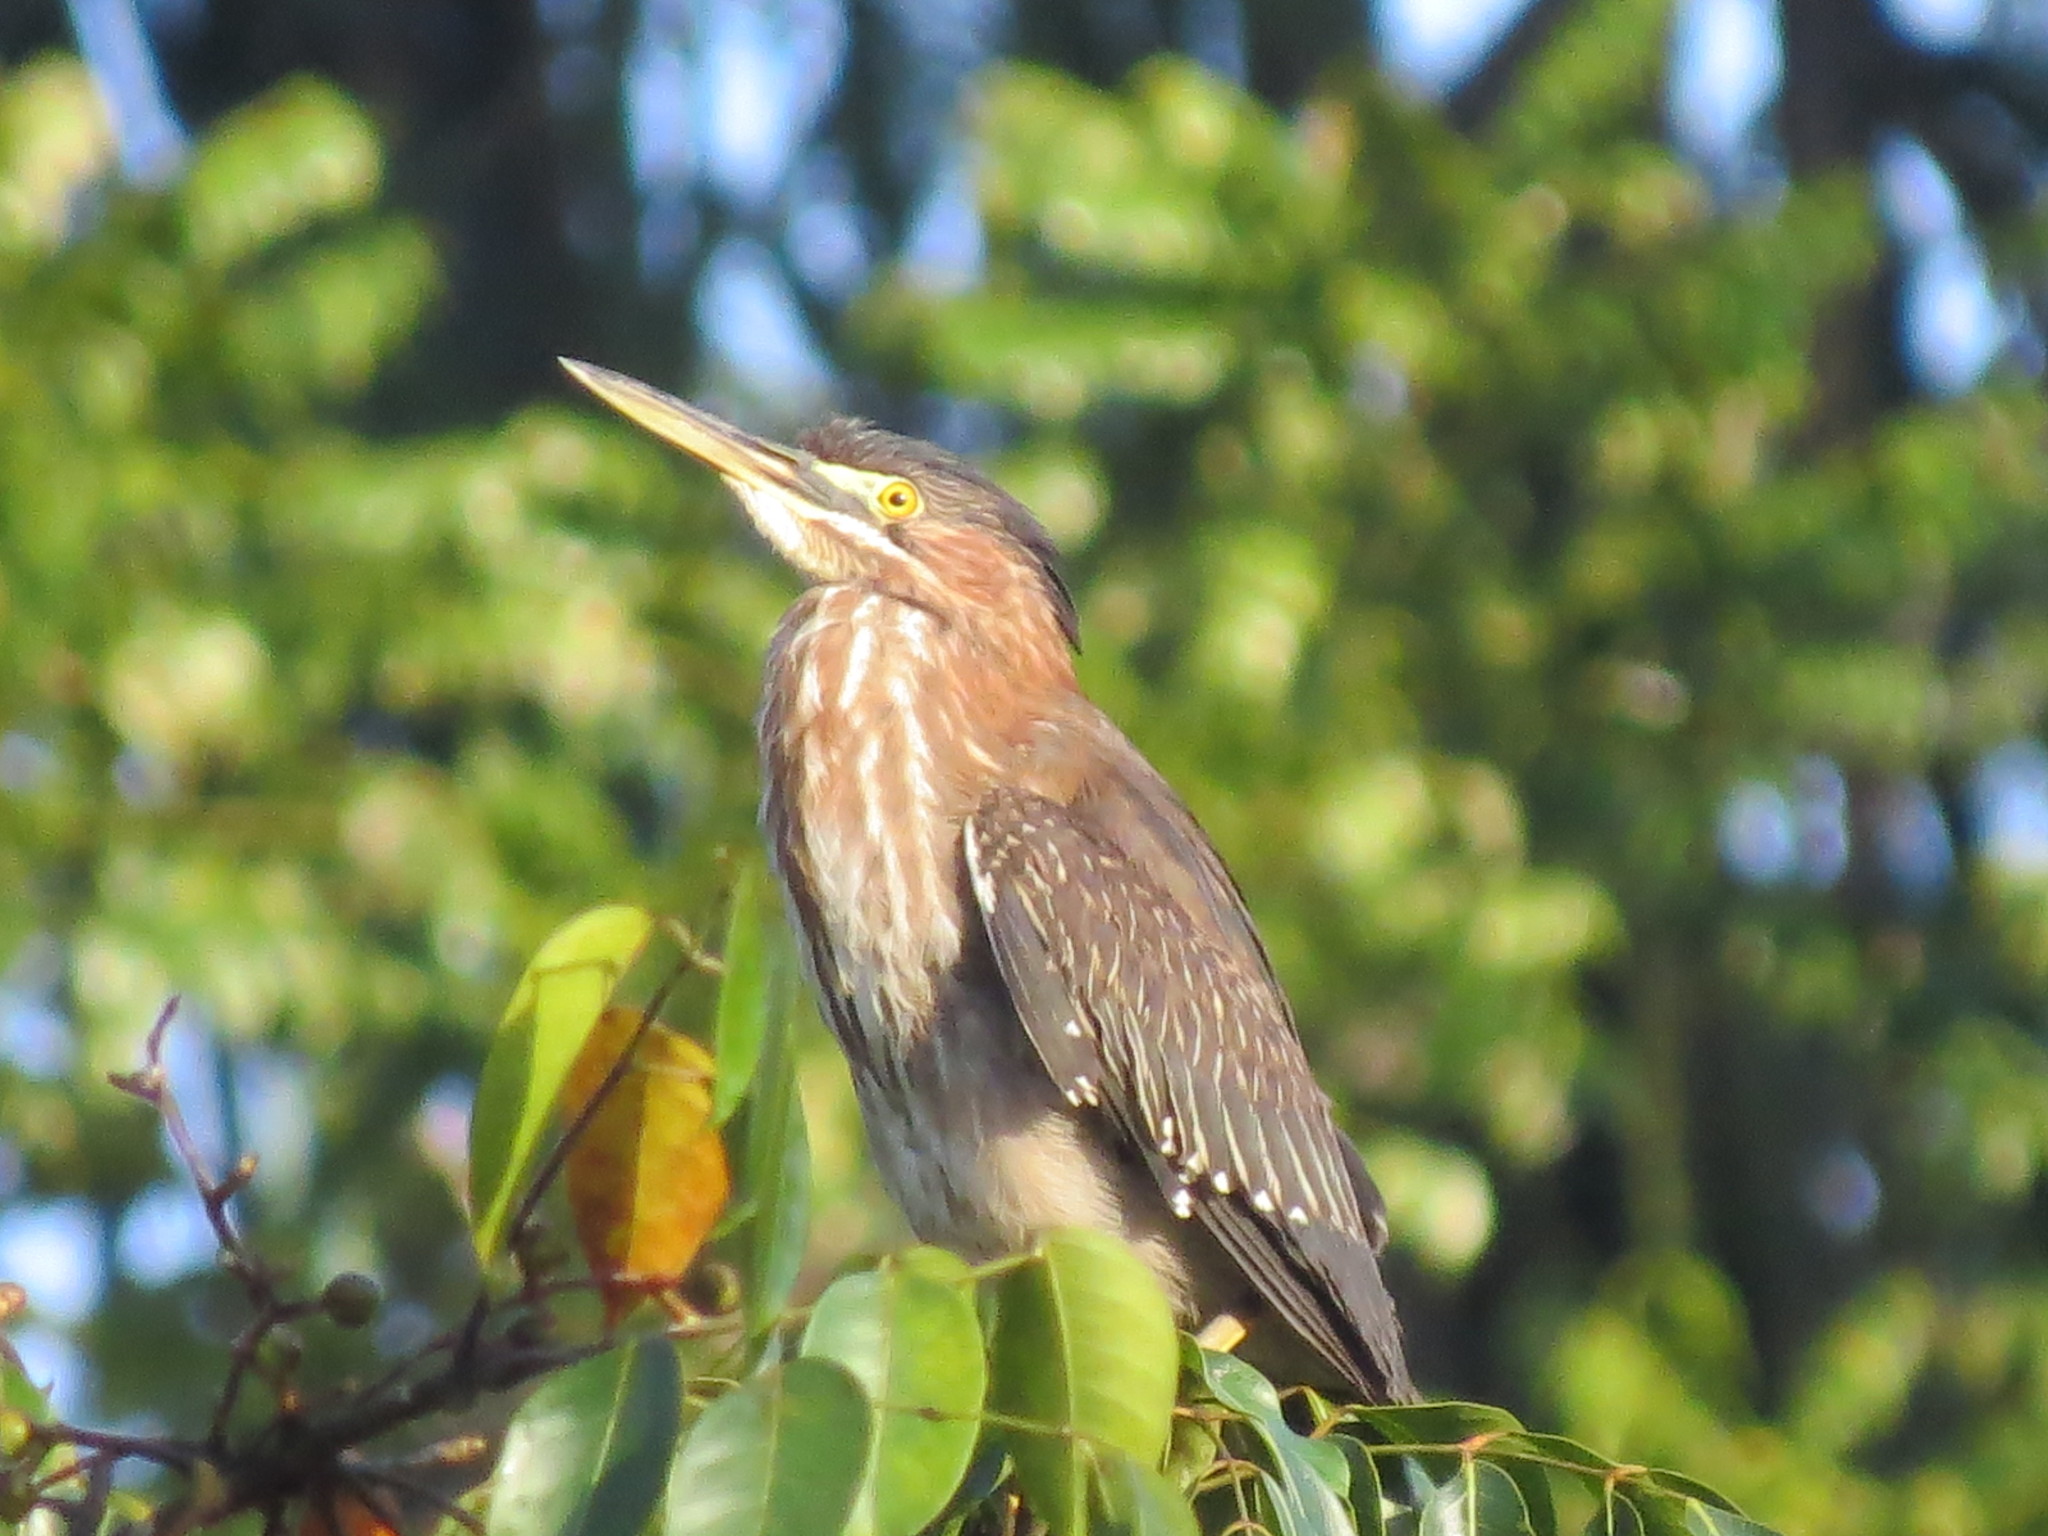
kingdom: Animalia
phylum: Chordata
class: Aves
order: Pelecaniformes
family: Ardeidae
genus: Butorides
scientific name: Butorides virescens
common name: Green heron
